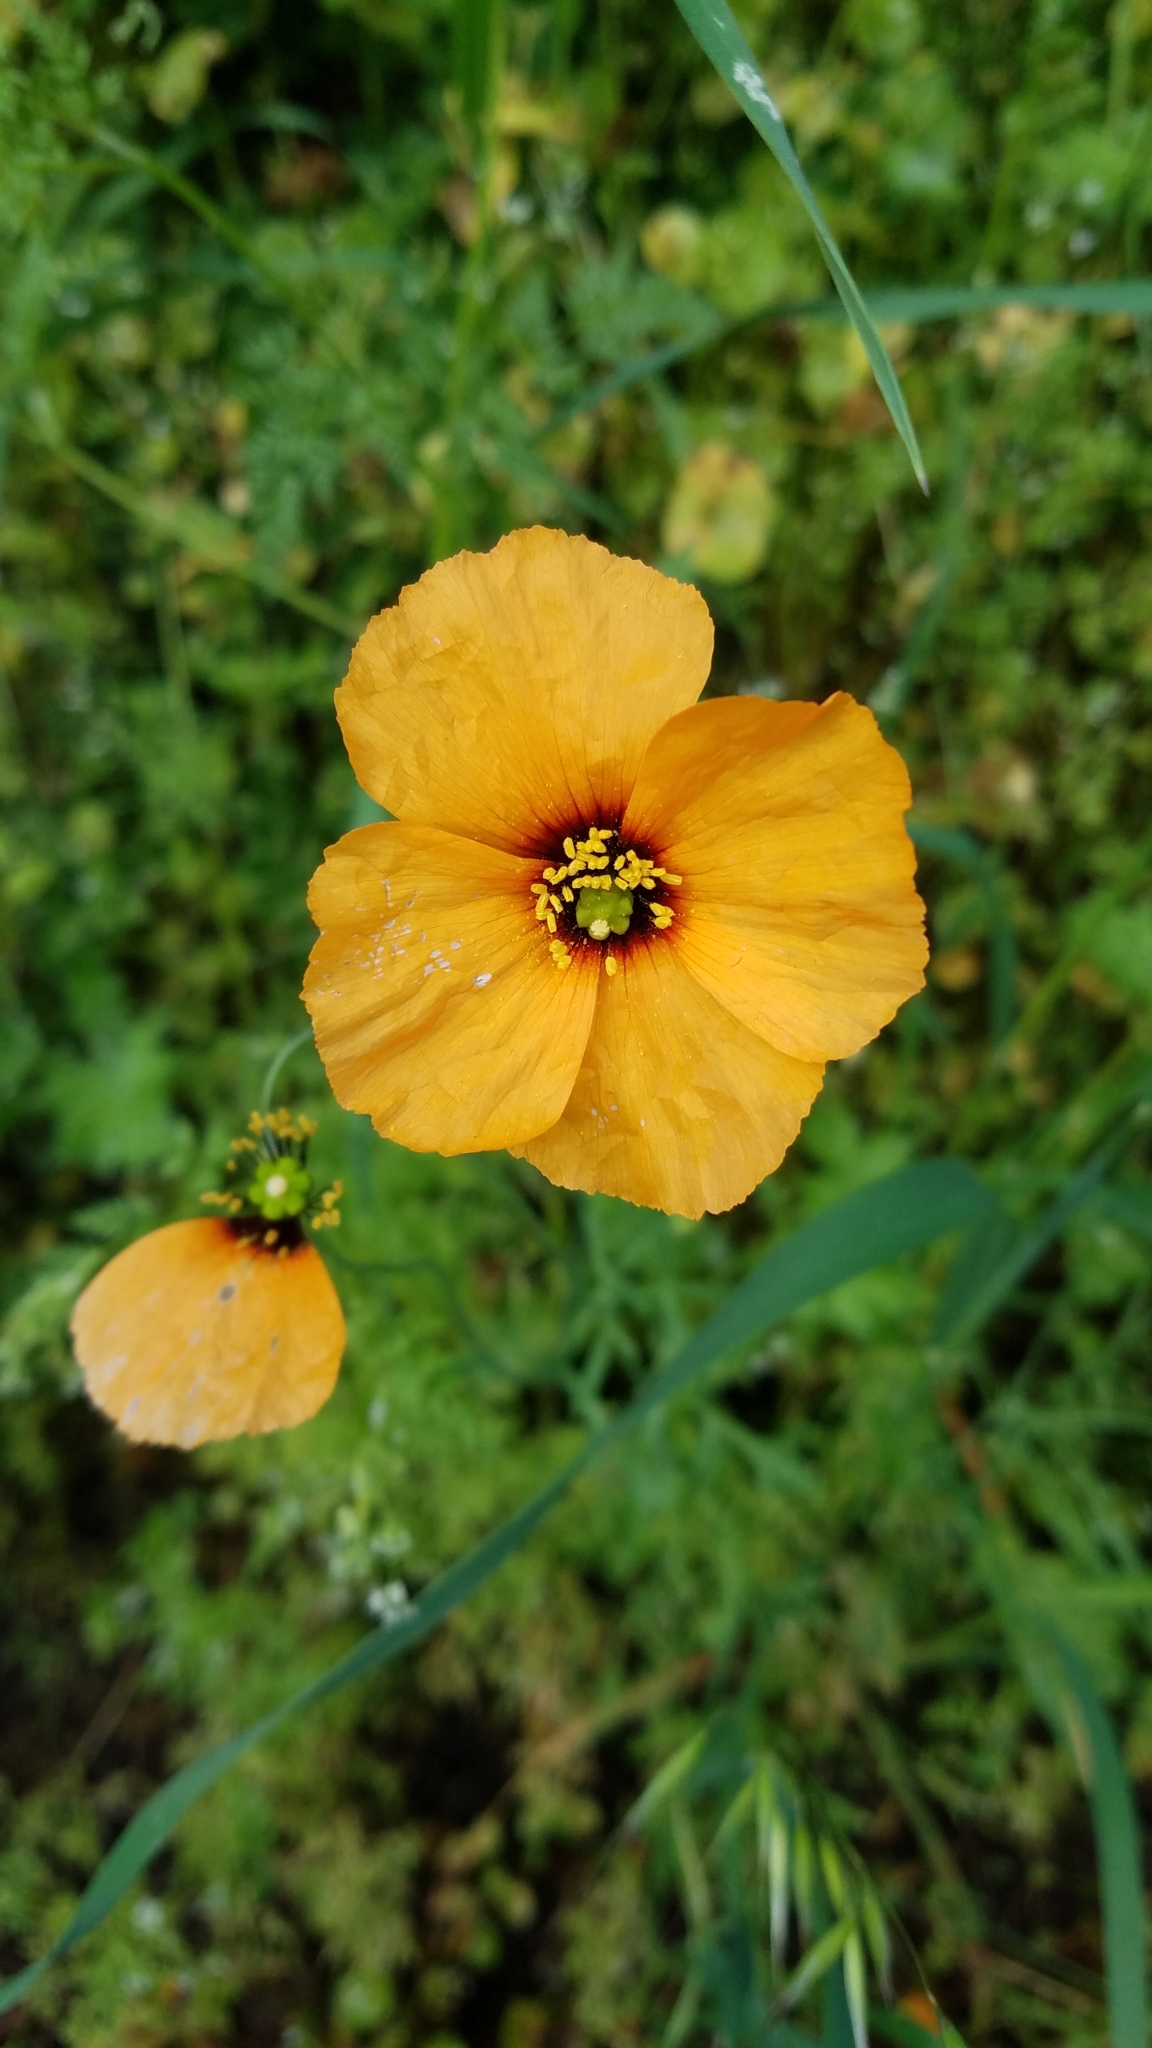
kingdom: Plantae
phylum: Tracheophyta
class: Magnoliopsida
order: Ranunculales
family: Papaveraceae
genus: Stylomecon
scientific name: Stylomecon heterophylla
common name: Flaming-poppy
